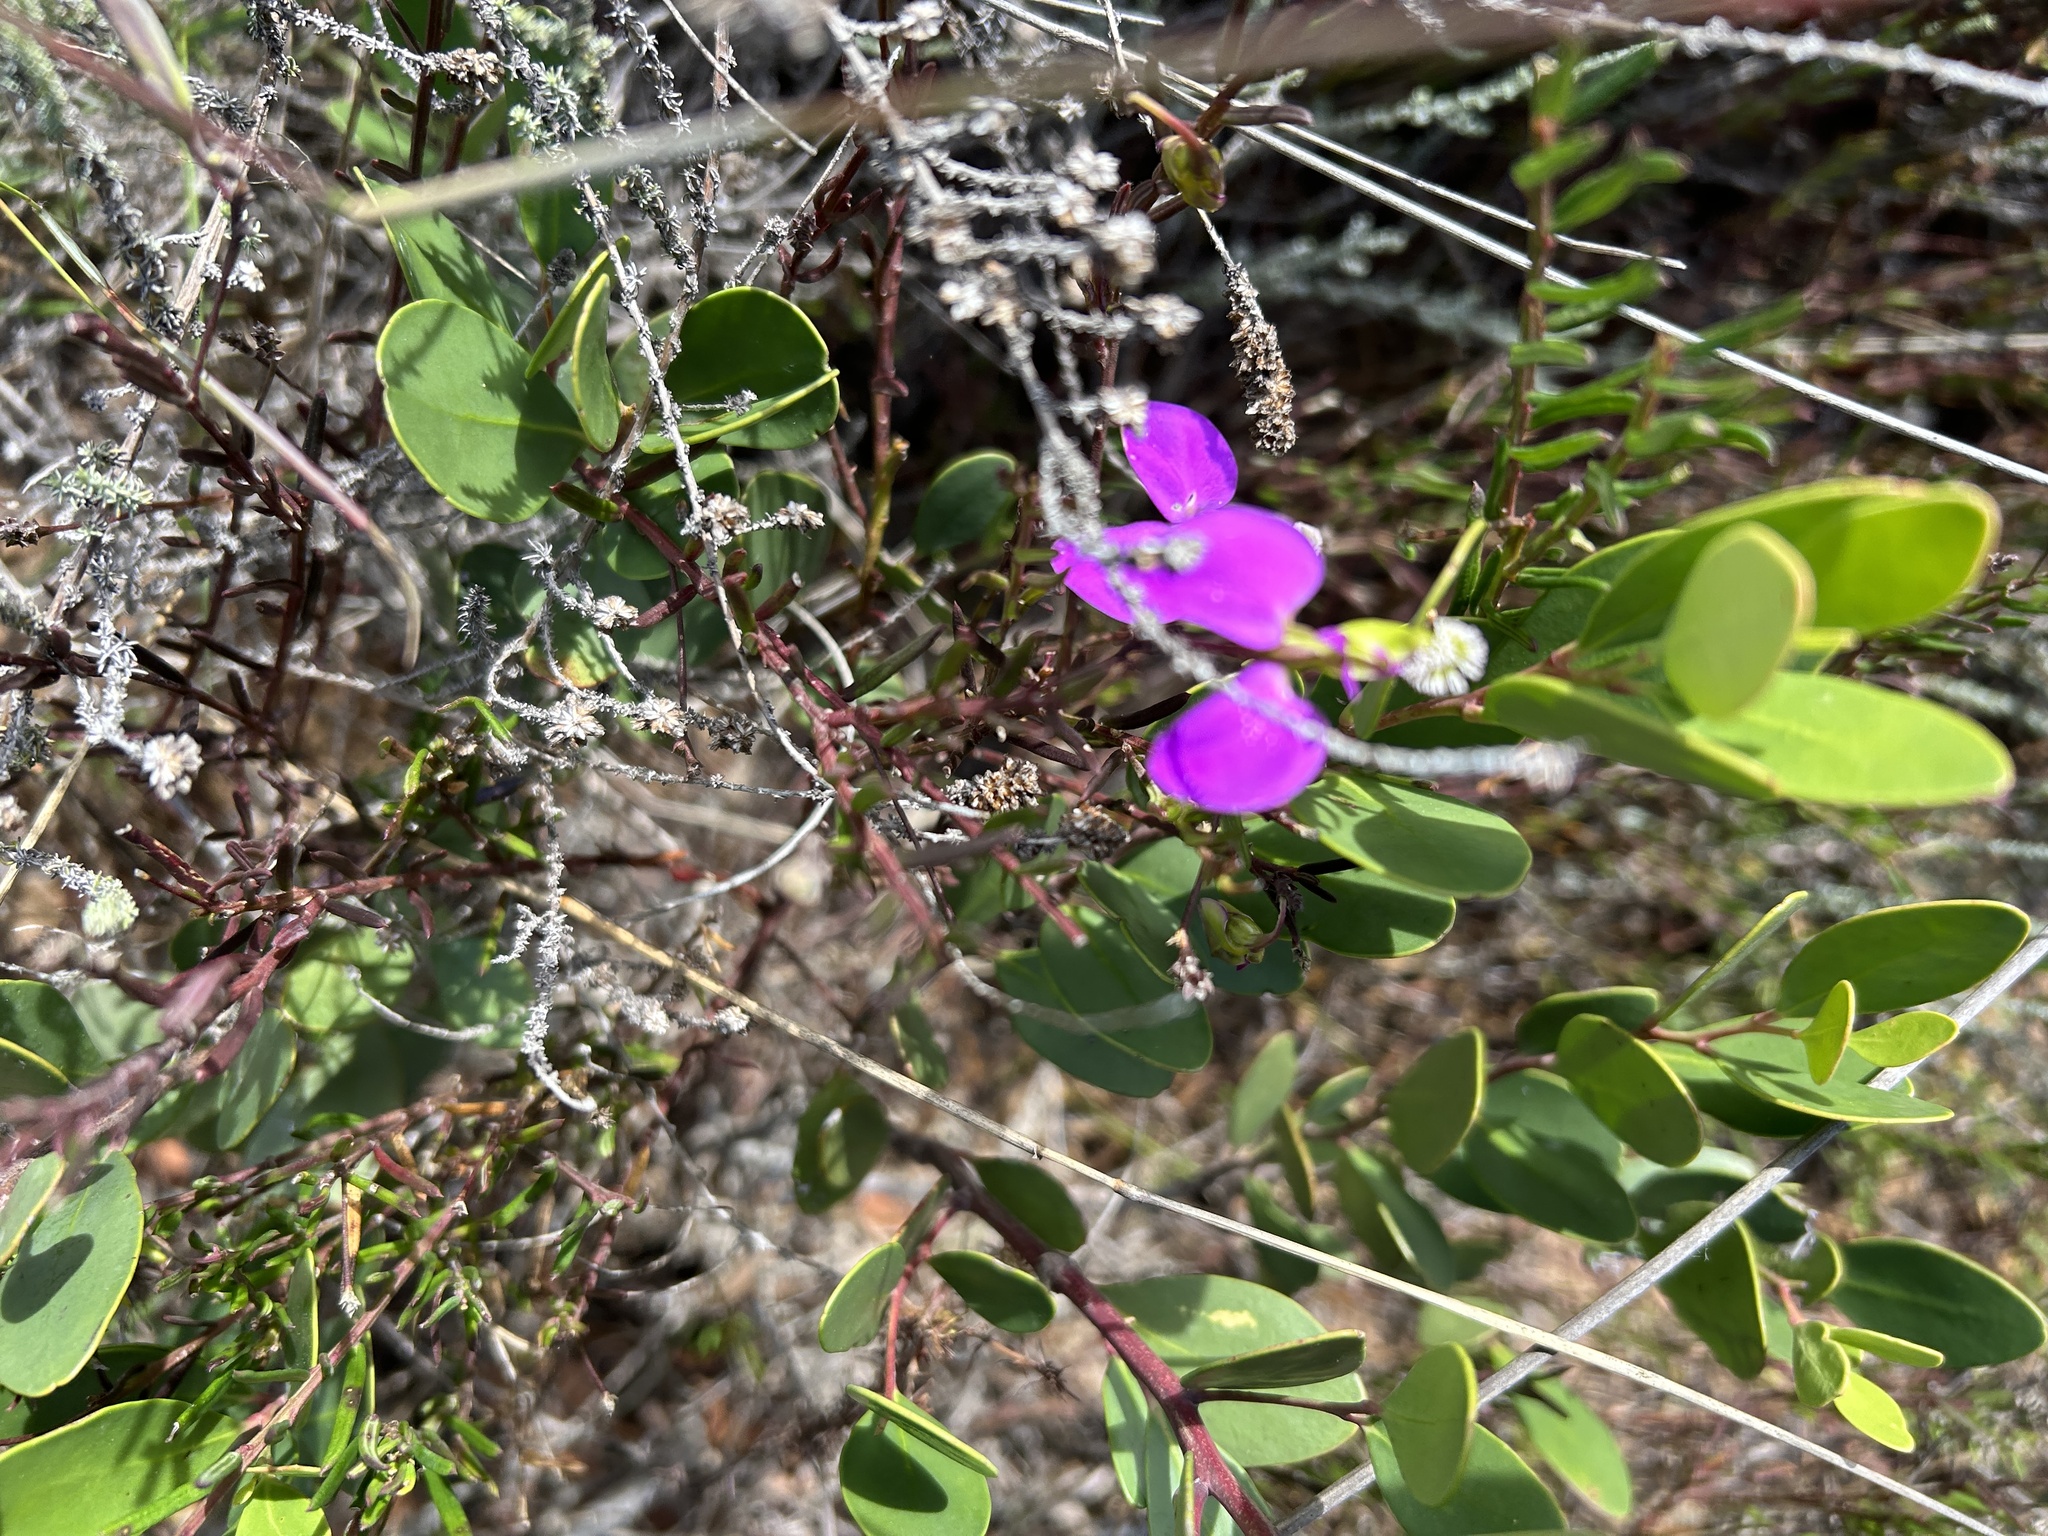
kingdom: Plantae
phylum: Tracheophyta
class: Magnoliopsida
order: Fabales
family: Polygalaceae
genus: Polygala
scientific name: Polygala peduncularis
